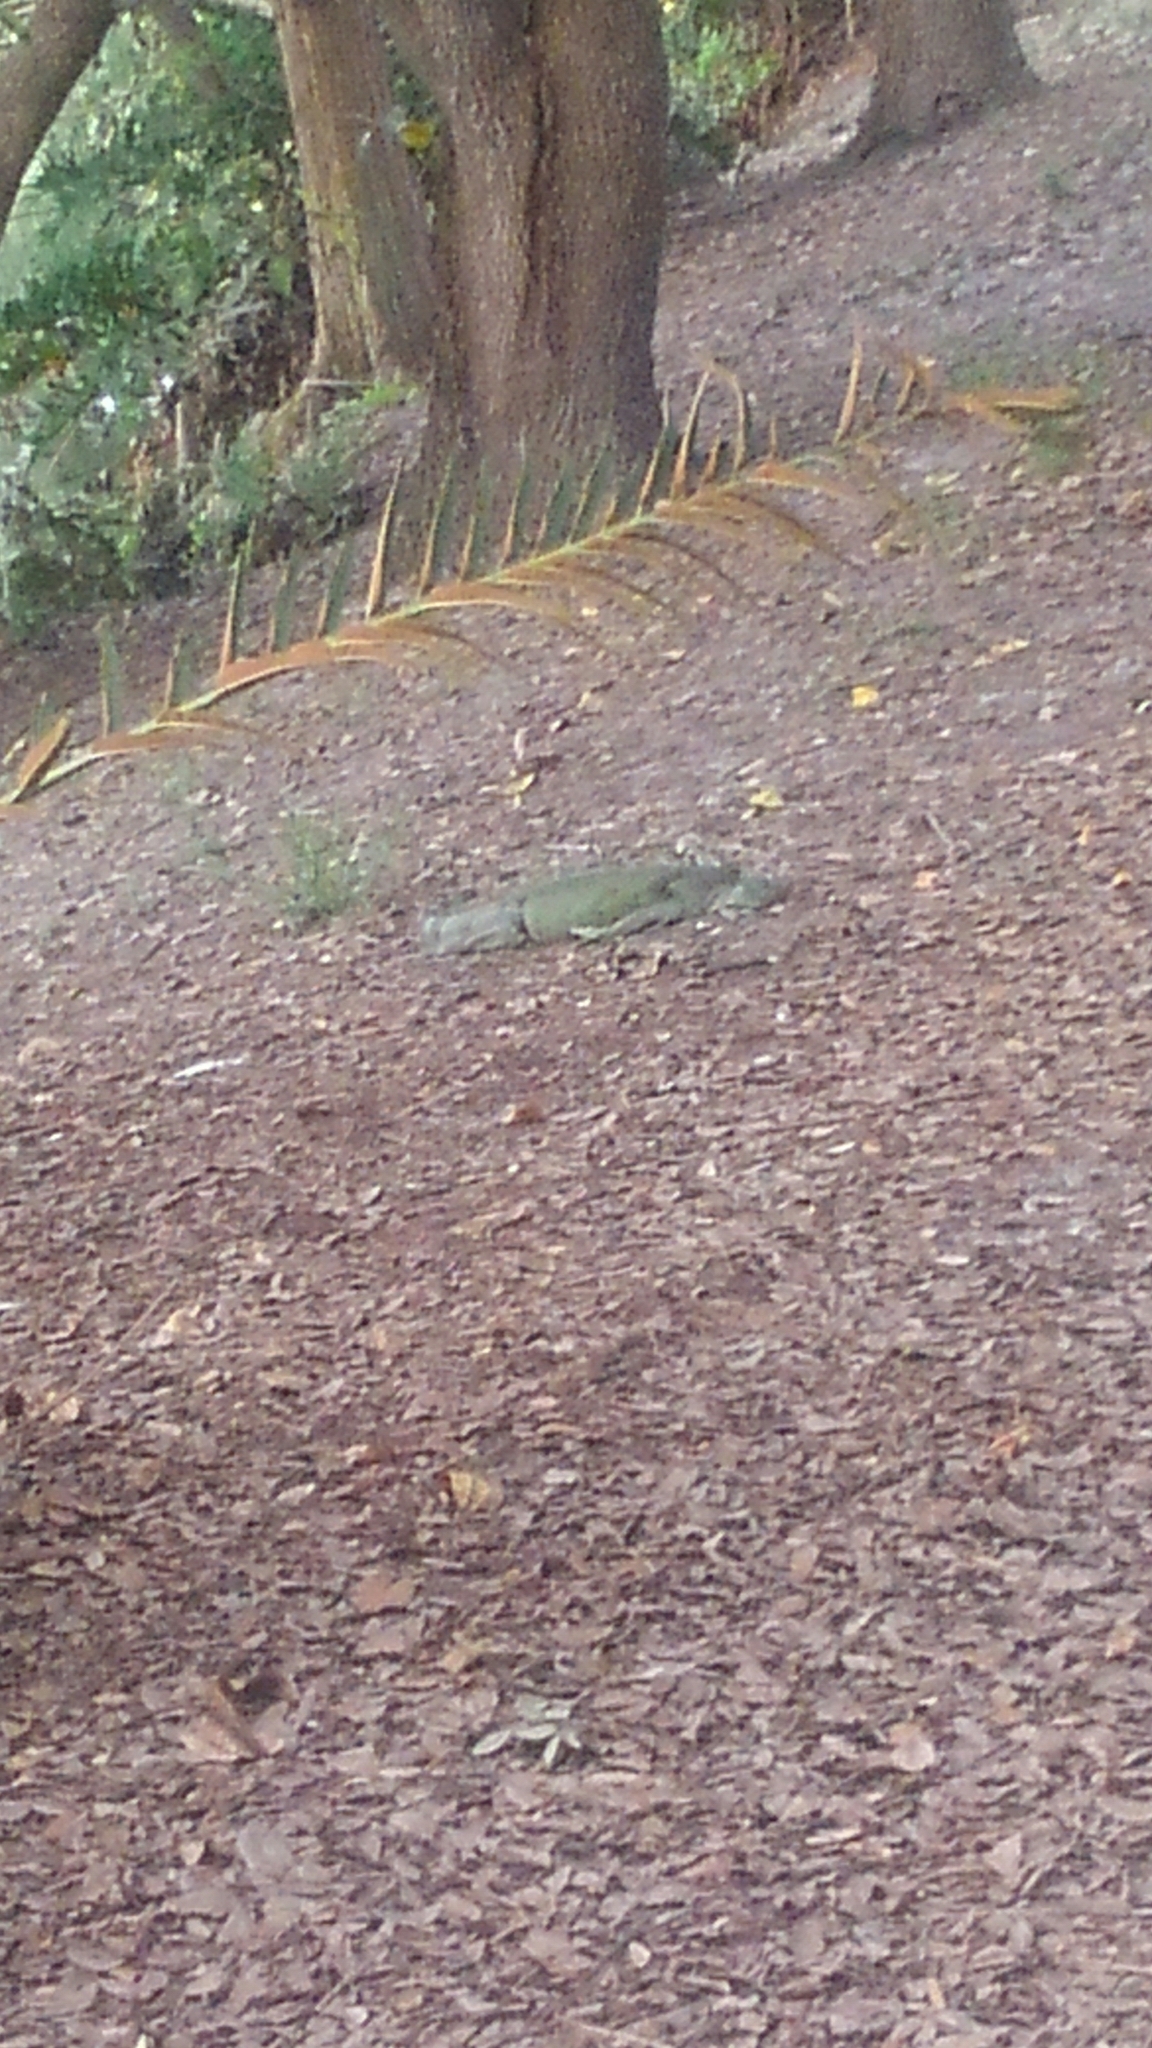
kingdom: Animalia
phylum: Chordata
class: Squamata
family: Iguanidae
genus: Iguana
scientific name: Iguana iguana
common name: Green iguana
